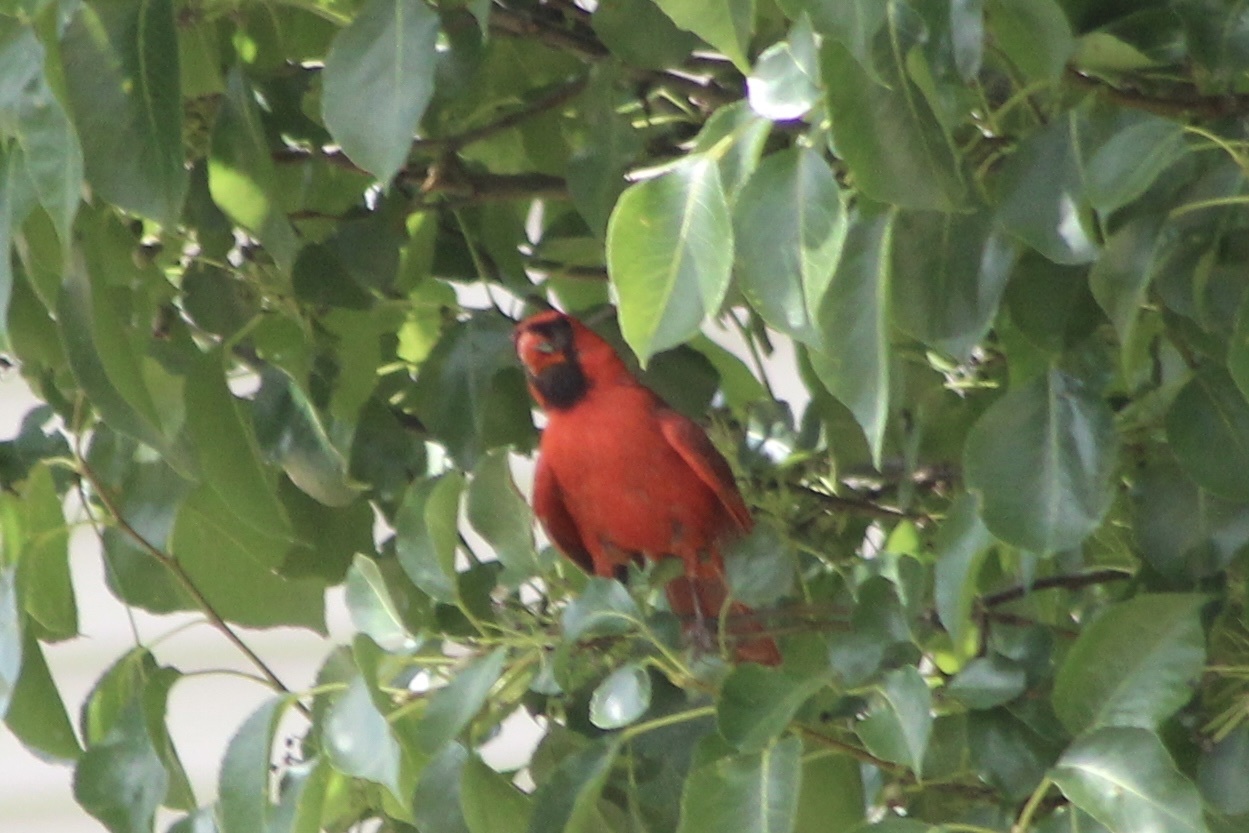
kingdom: Animalia
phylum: Chordata
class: Aves
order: Passeriformes
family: Cardinalidae
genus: Cardinalis
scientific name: Cardinalis cardinalis
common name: Northern cardinal
